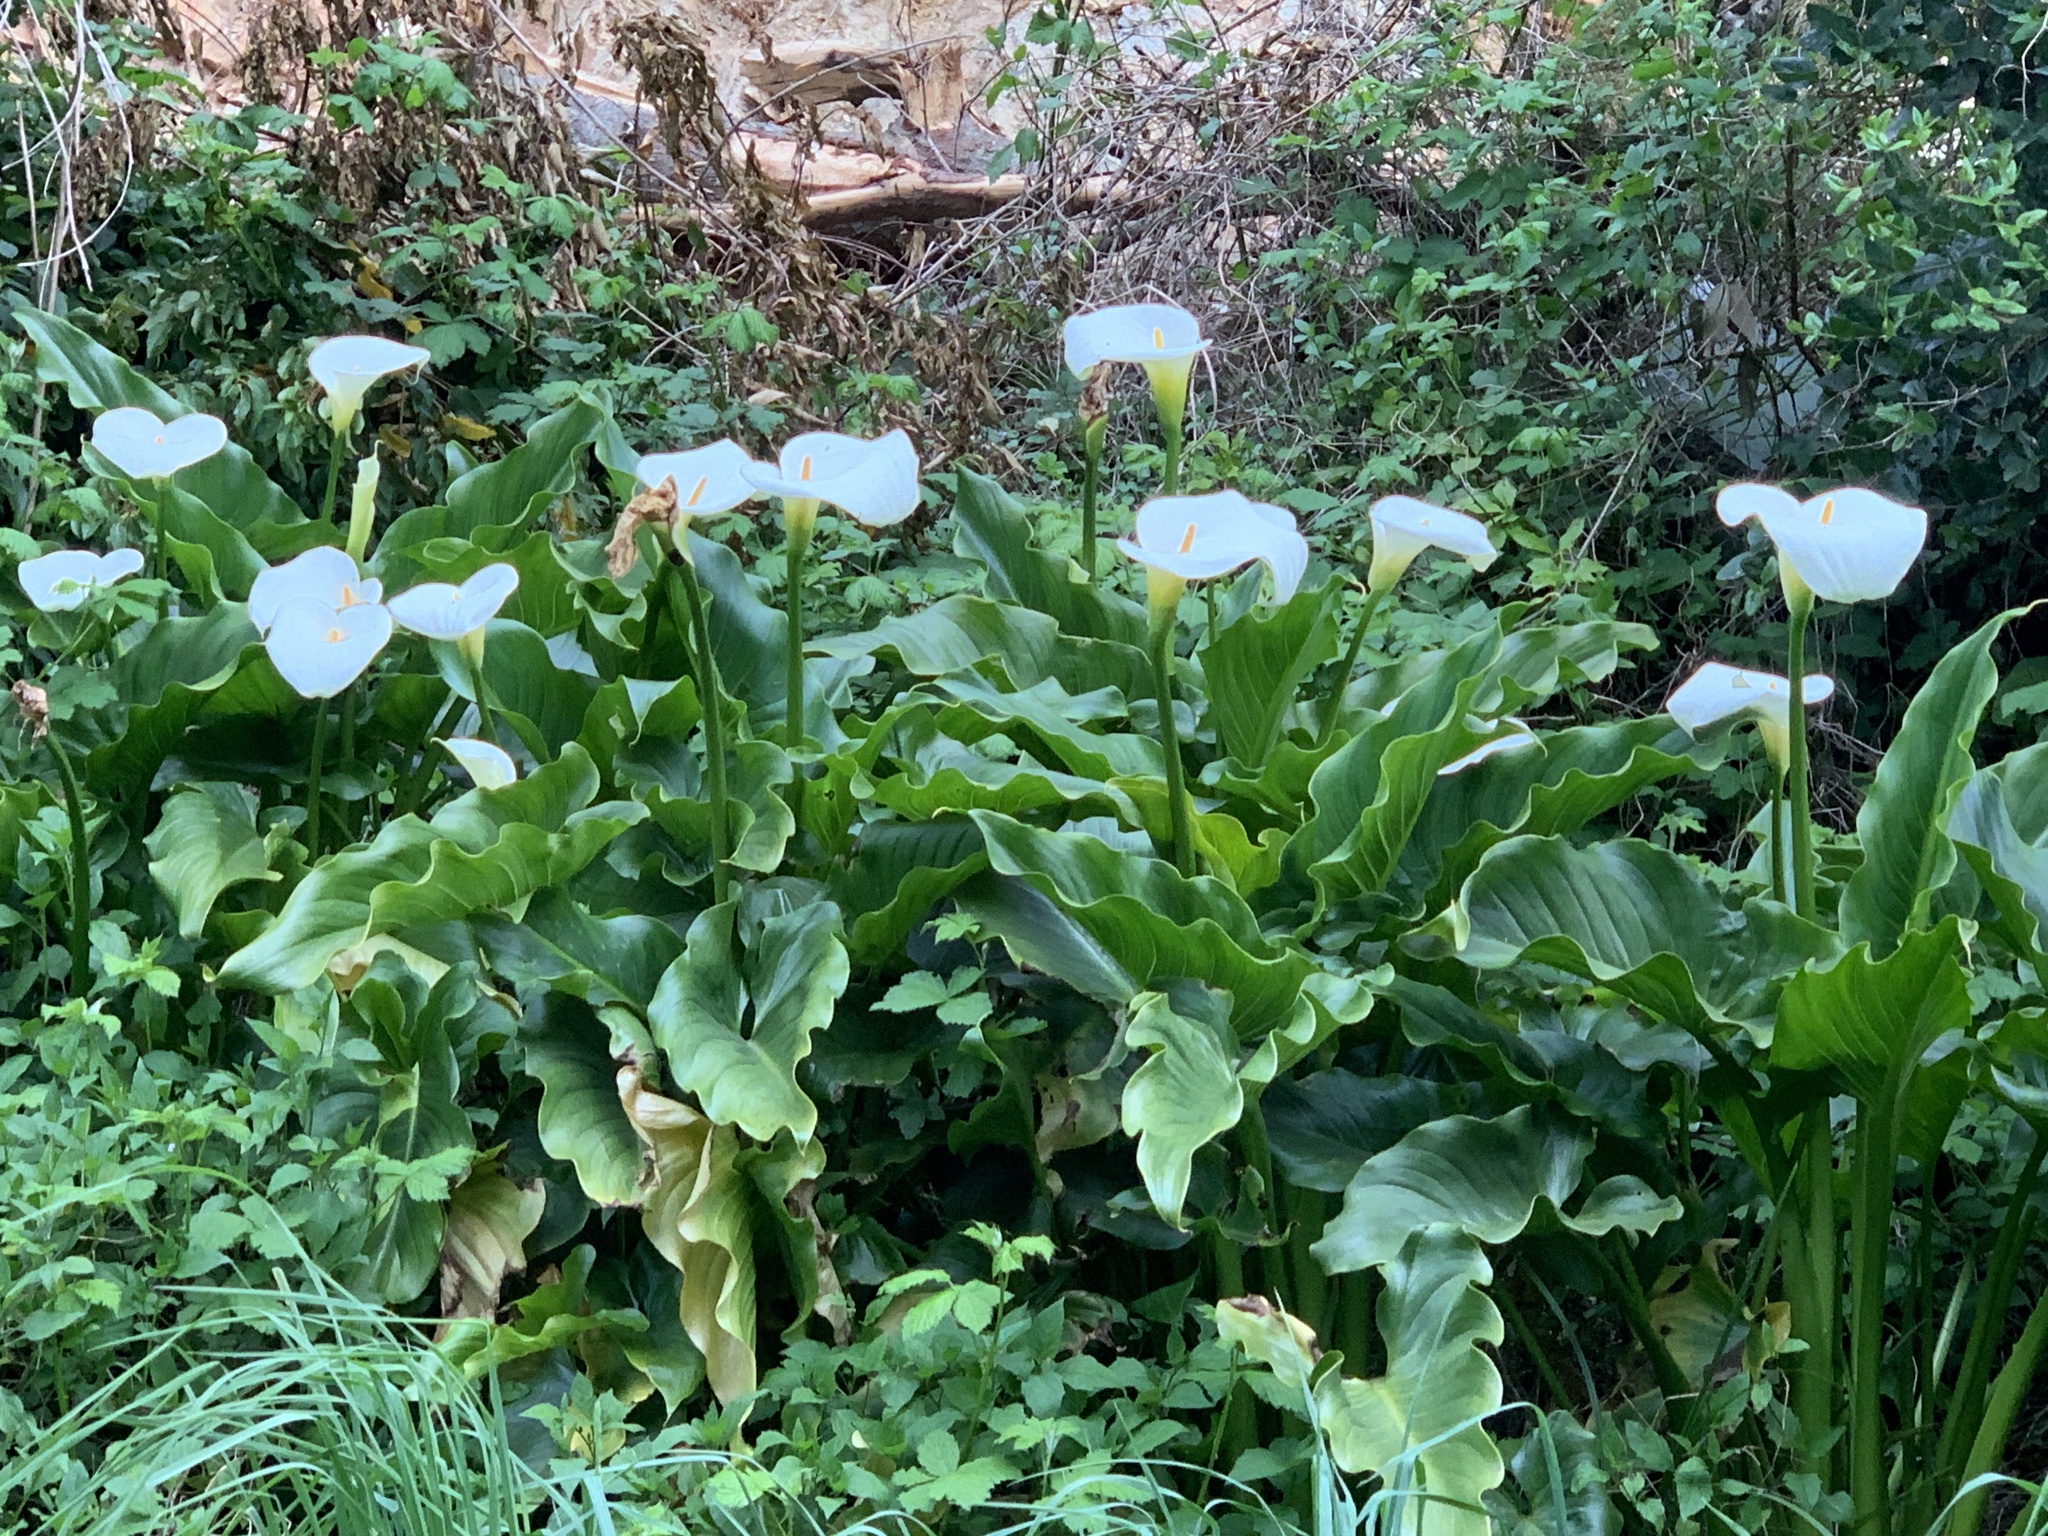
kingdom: Plantae
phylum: Tracheophyta
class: Liliopsida
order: Alismatales
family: Araceae
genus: Zantedeschia
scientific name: Zantedeschia aethiopica
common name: Altar-lily
